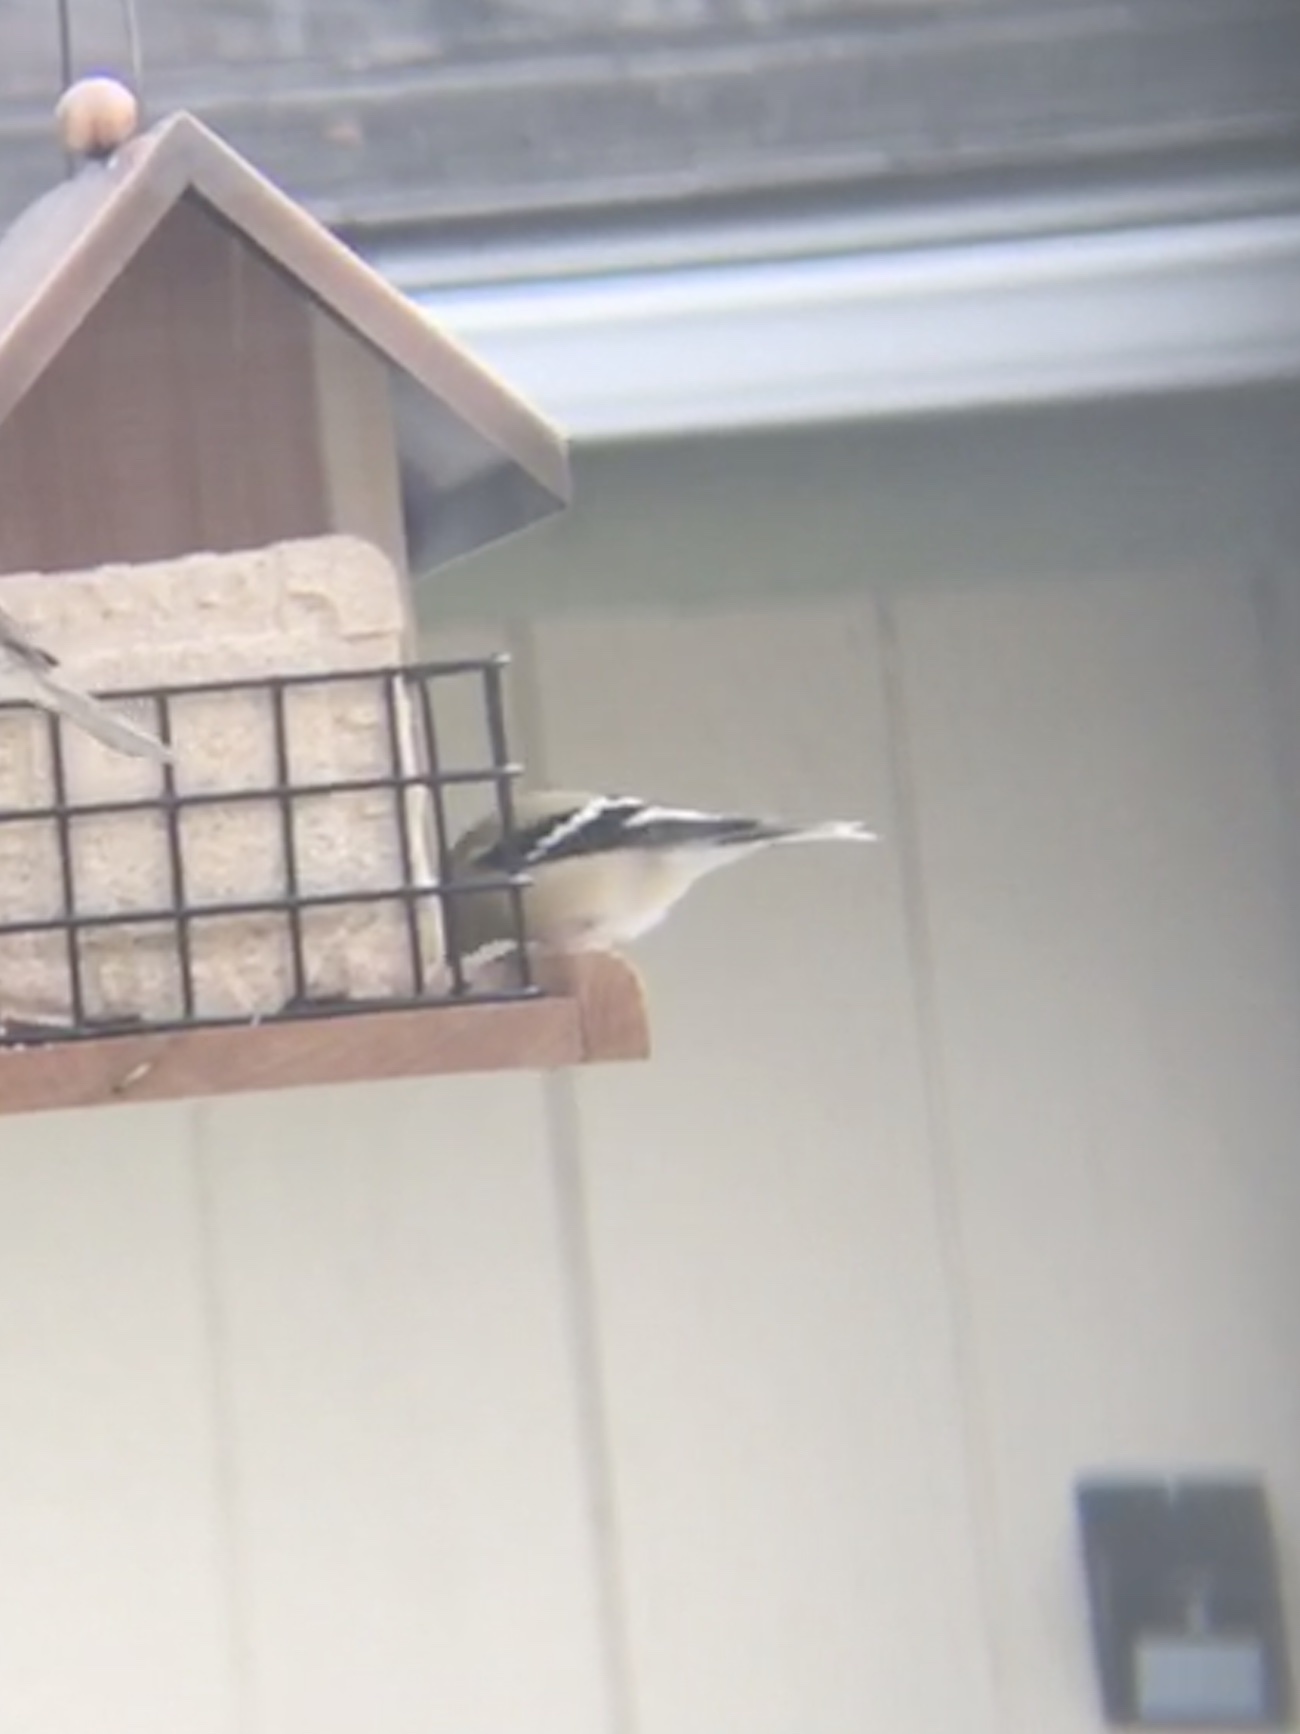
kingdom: Animalia
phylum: Chordata
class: Aves
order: Passeriformes
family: Fringillidae
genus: Spinus
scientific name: Spinus tristis
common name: American goldfinch
